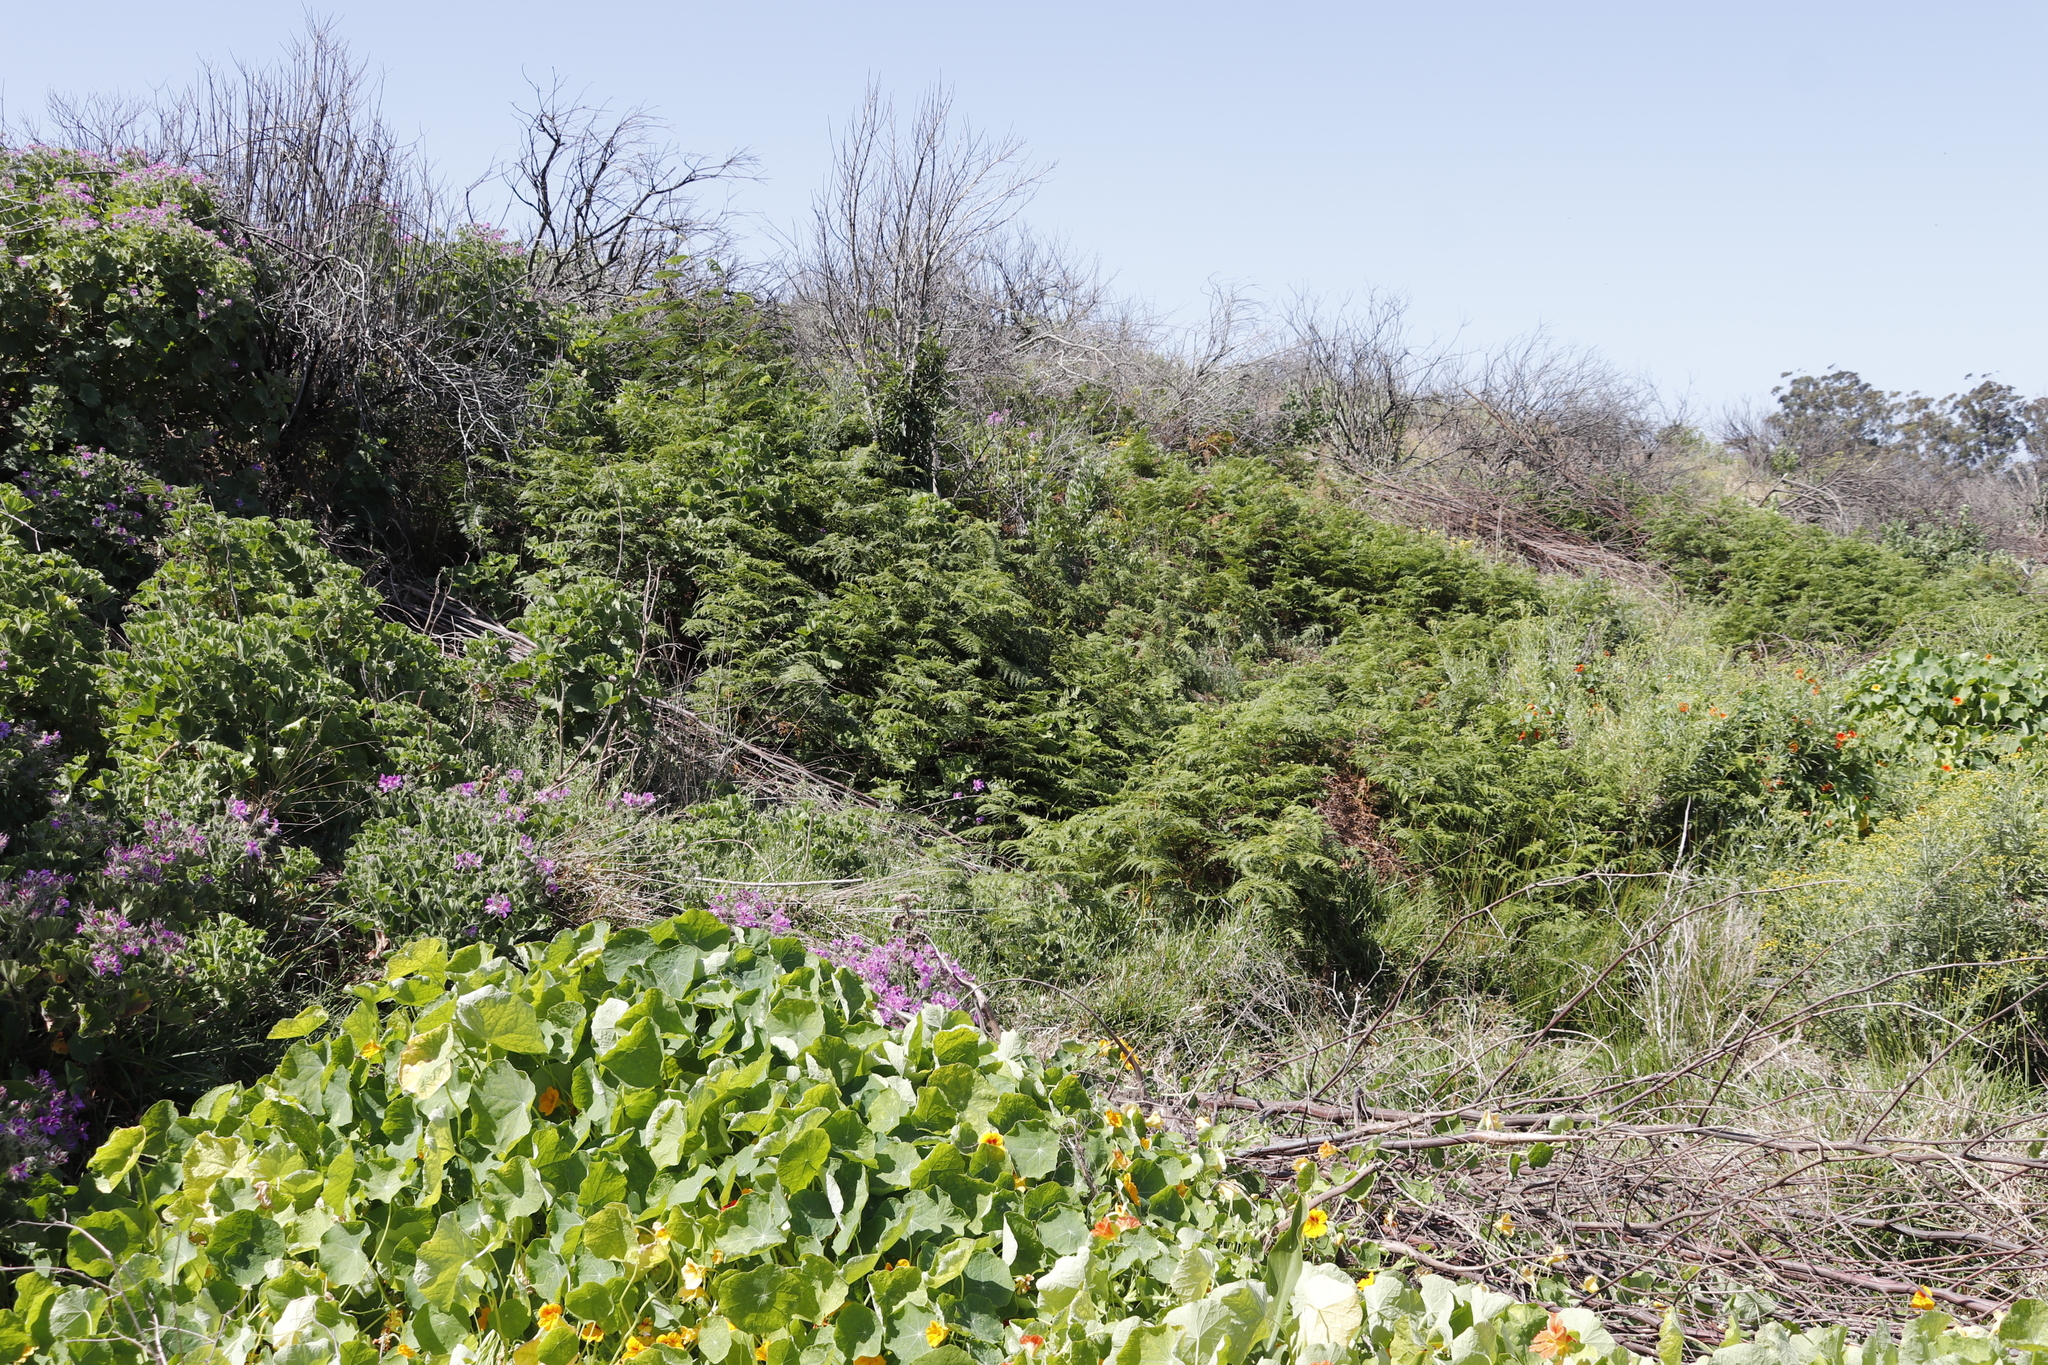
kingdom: Plantae
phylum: Tracheophyta
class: Polypodiopsida
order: Polypodiales
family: Dennstaedtiaceae
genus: Pteridium
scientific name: Pteridium aquilinum
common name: Bracken
